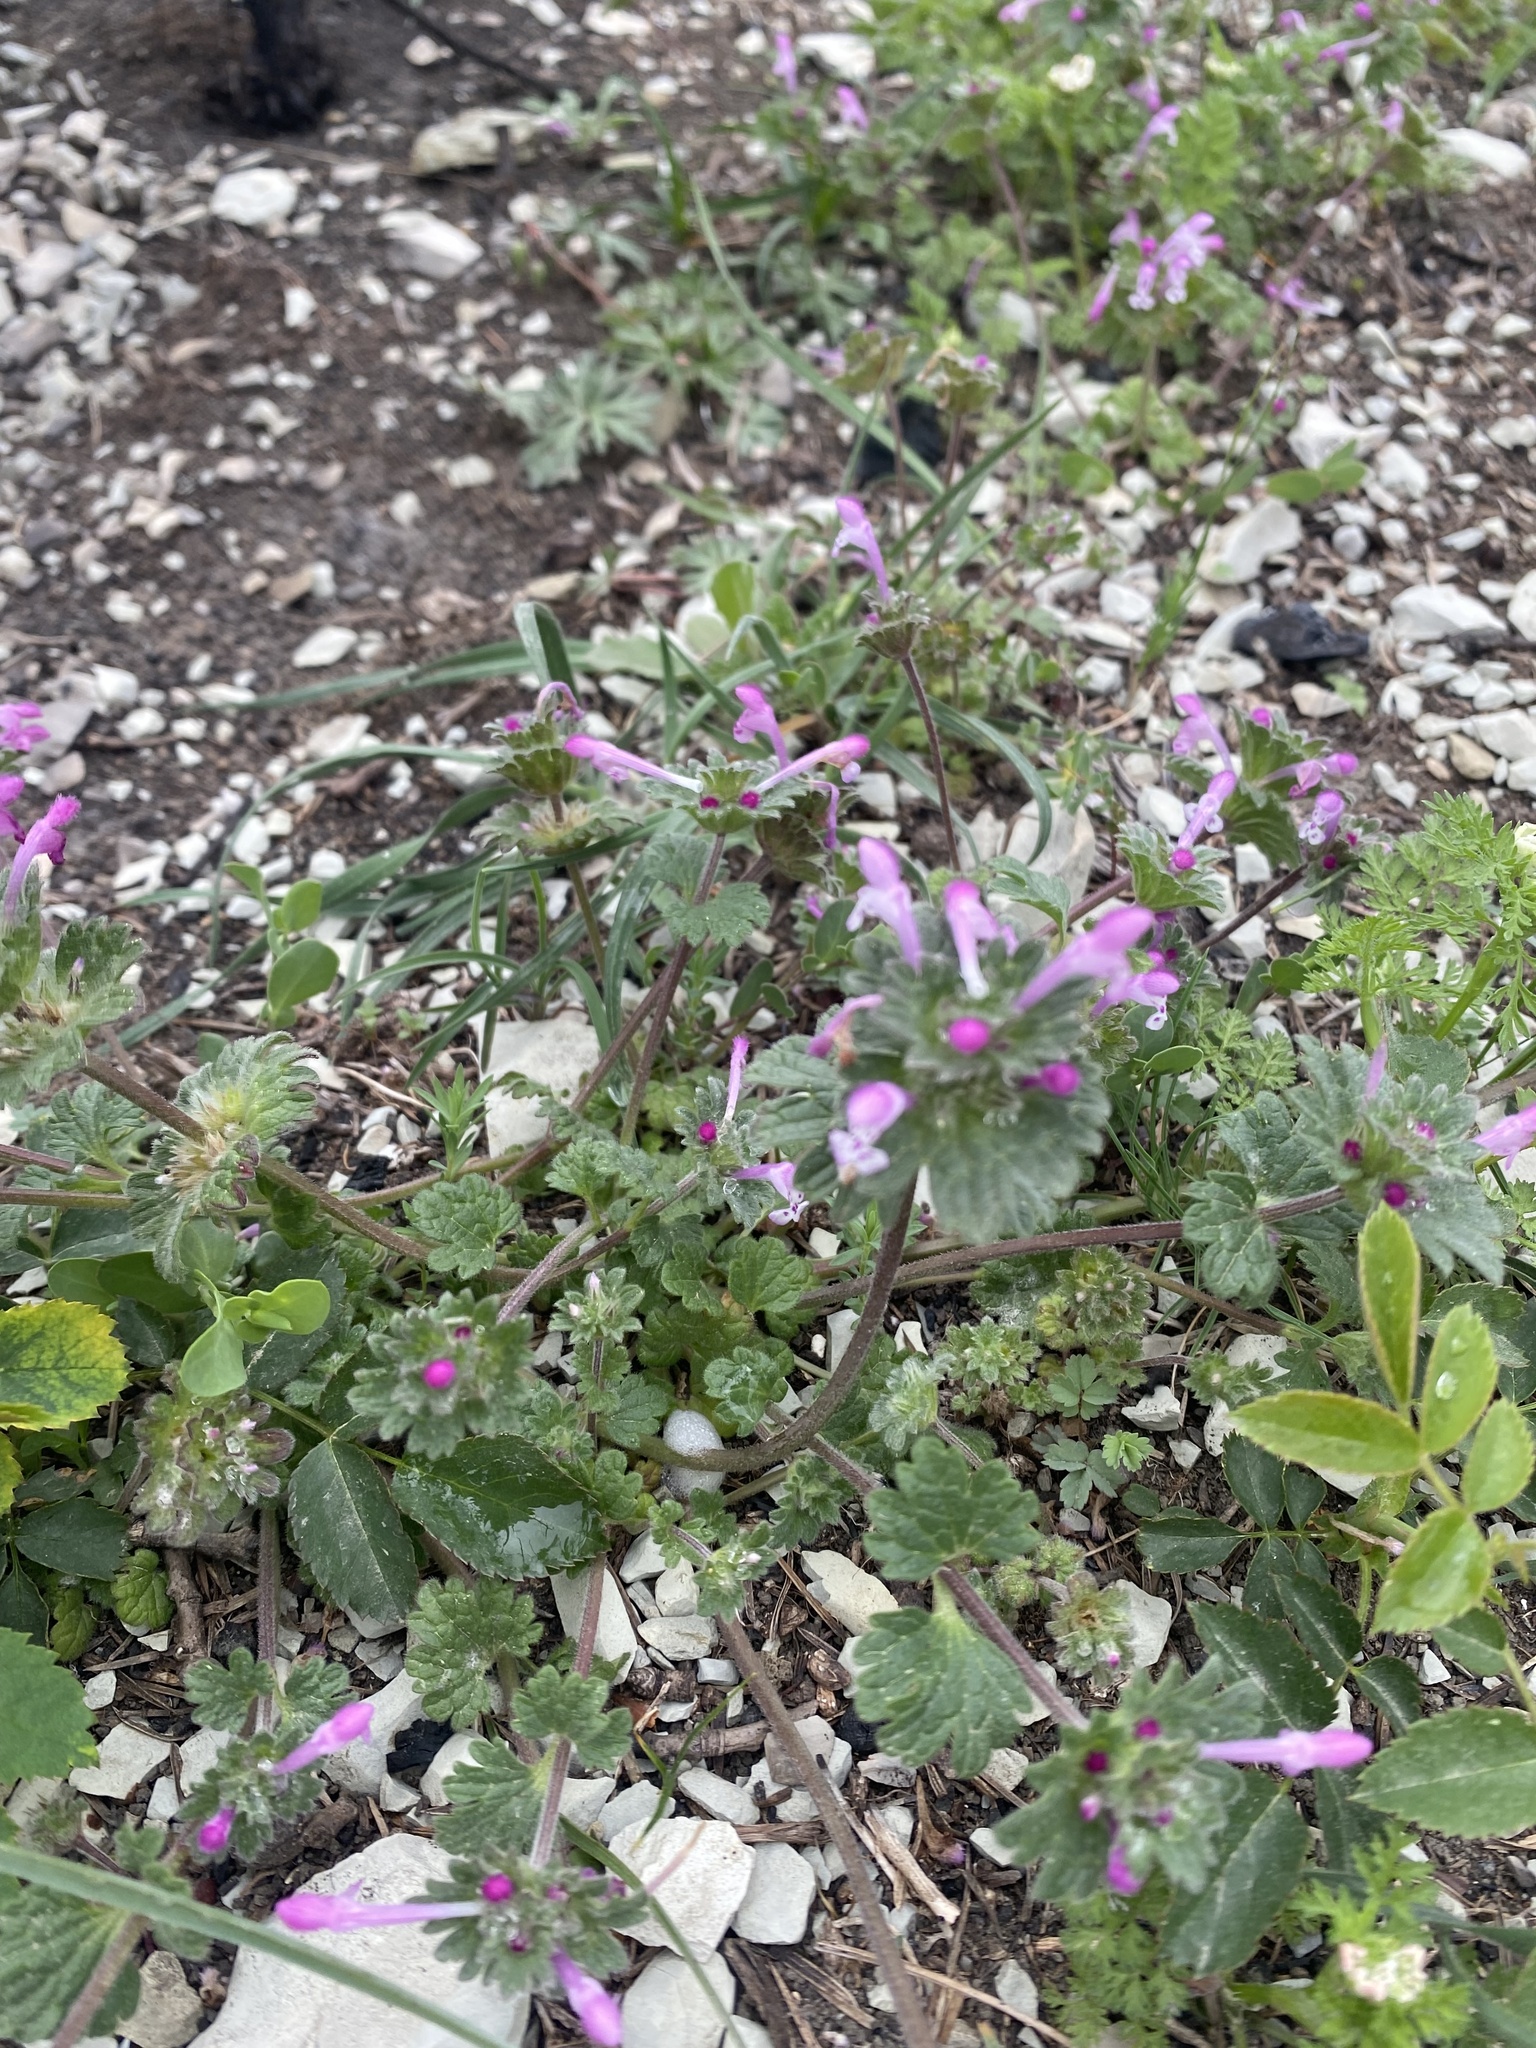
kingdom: Plantae
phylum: Tracheophyta
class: Magnoliopsida
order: Lamiales
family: Lamiaceae
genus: Lamium
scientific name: Lamium amplexicaule
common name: Henbit dead-nettle
